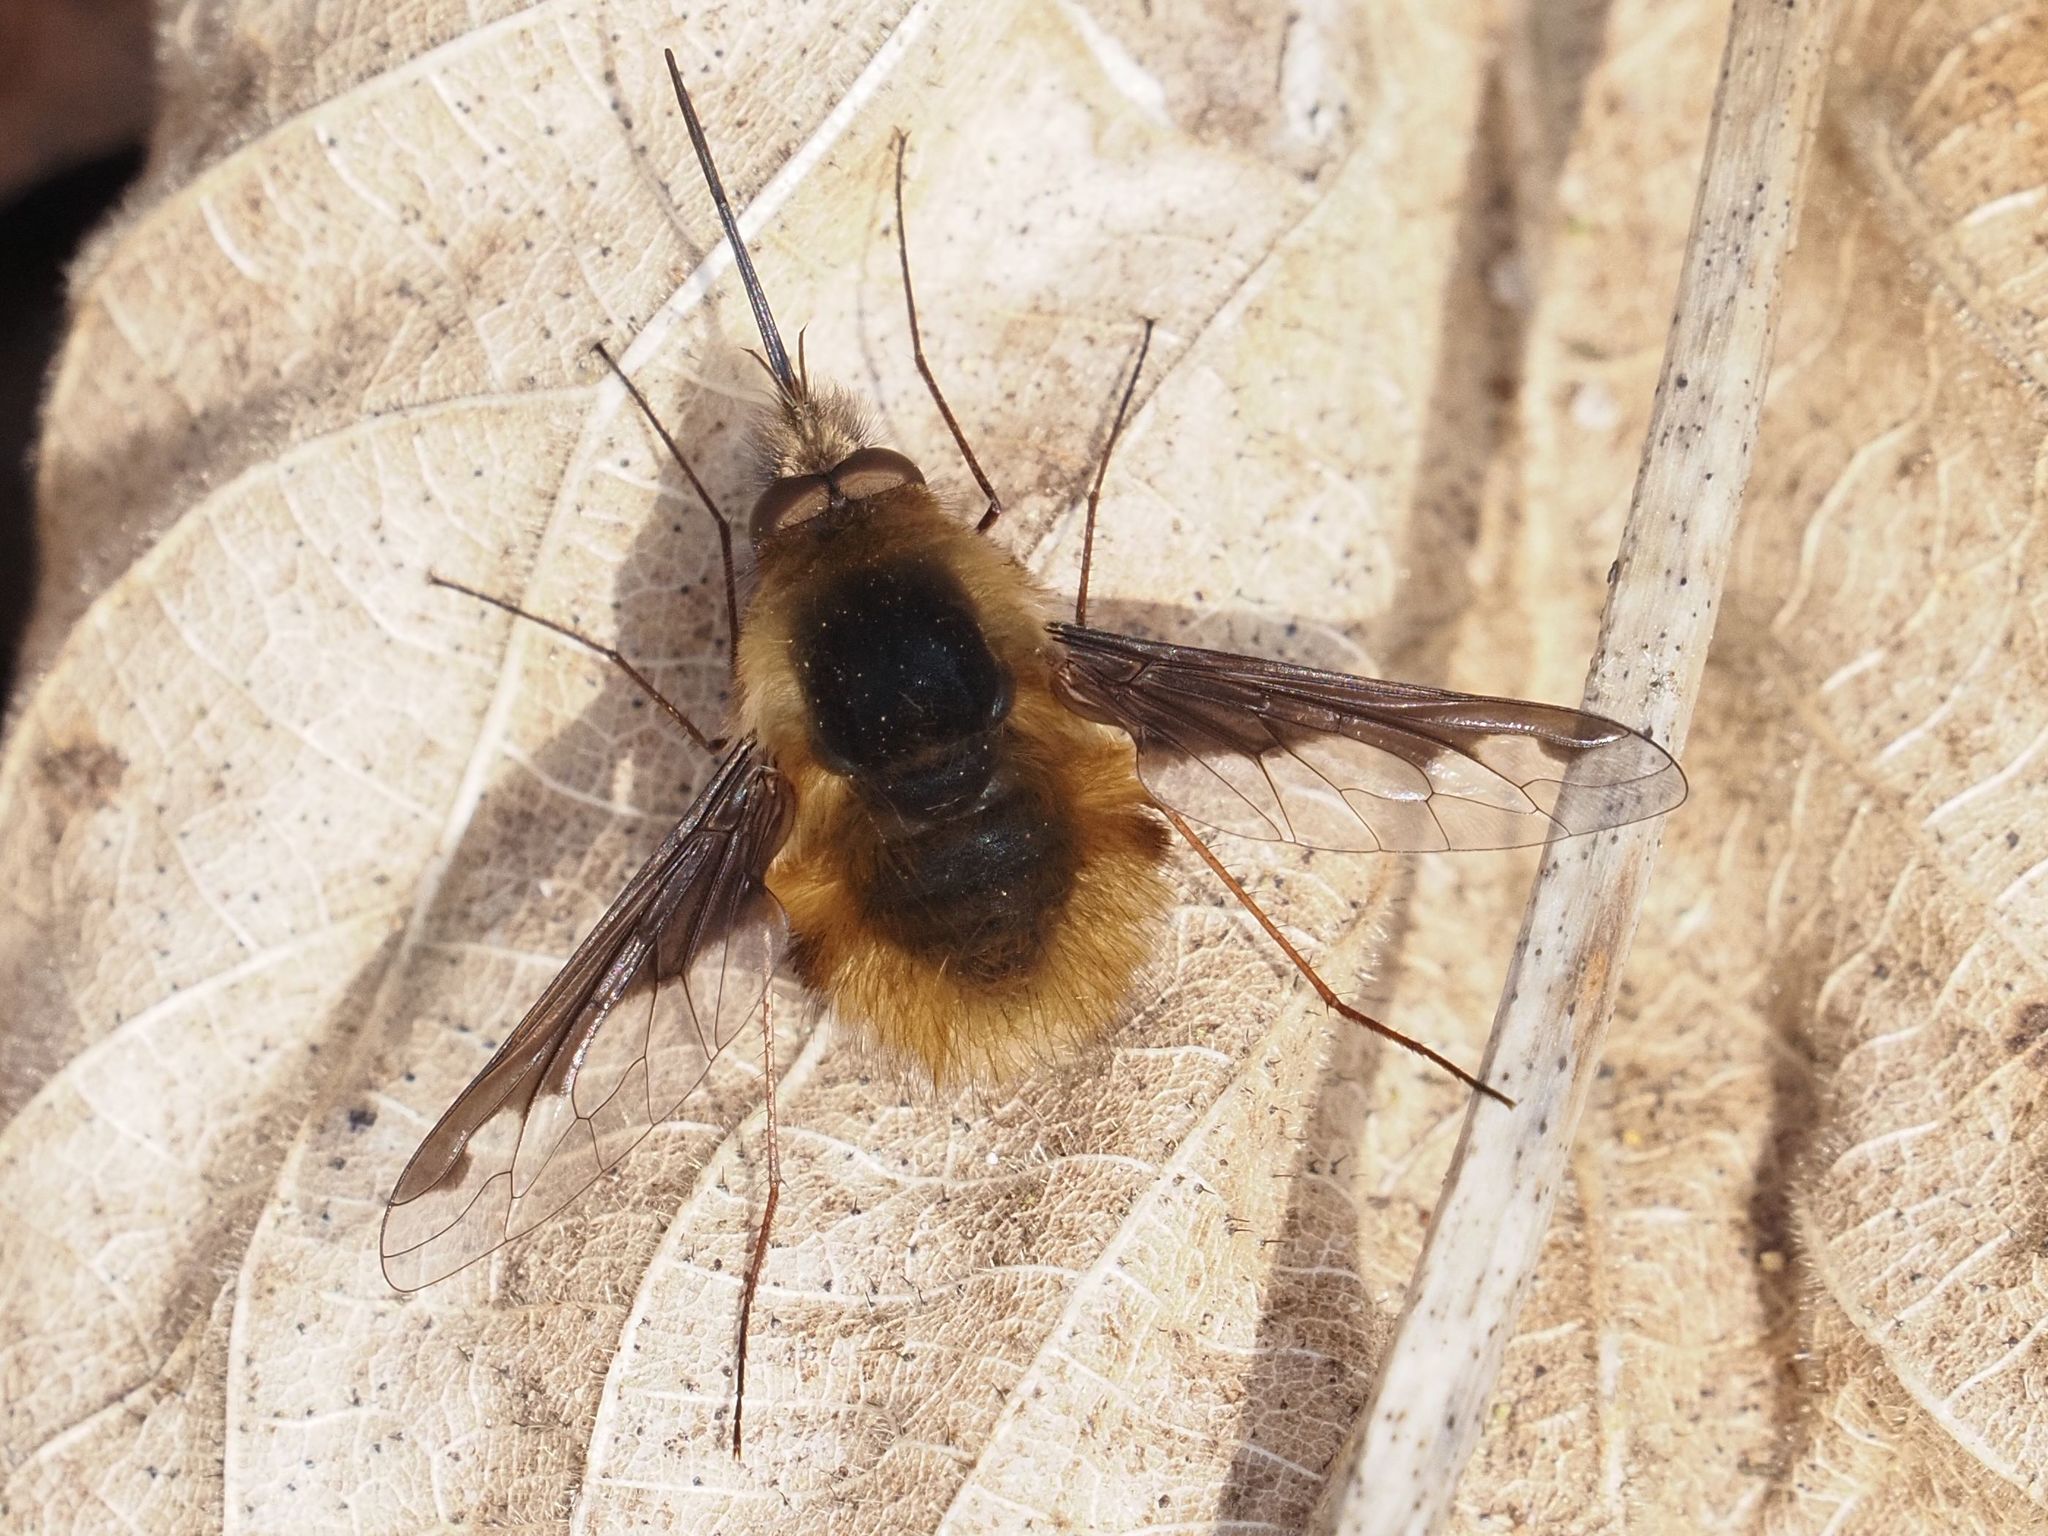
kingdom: Animalia
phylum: Arthropoda
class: Insecta
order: Diptera
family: Bombyliidae
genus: Bombylius
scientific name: Bombylius major
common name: Bee fly
